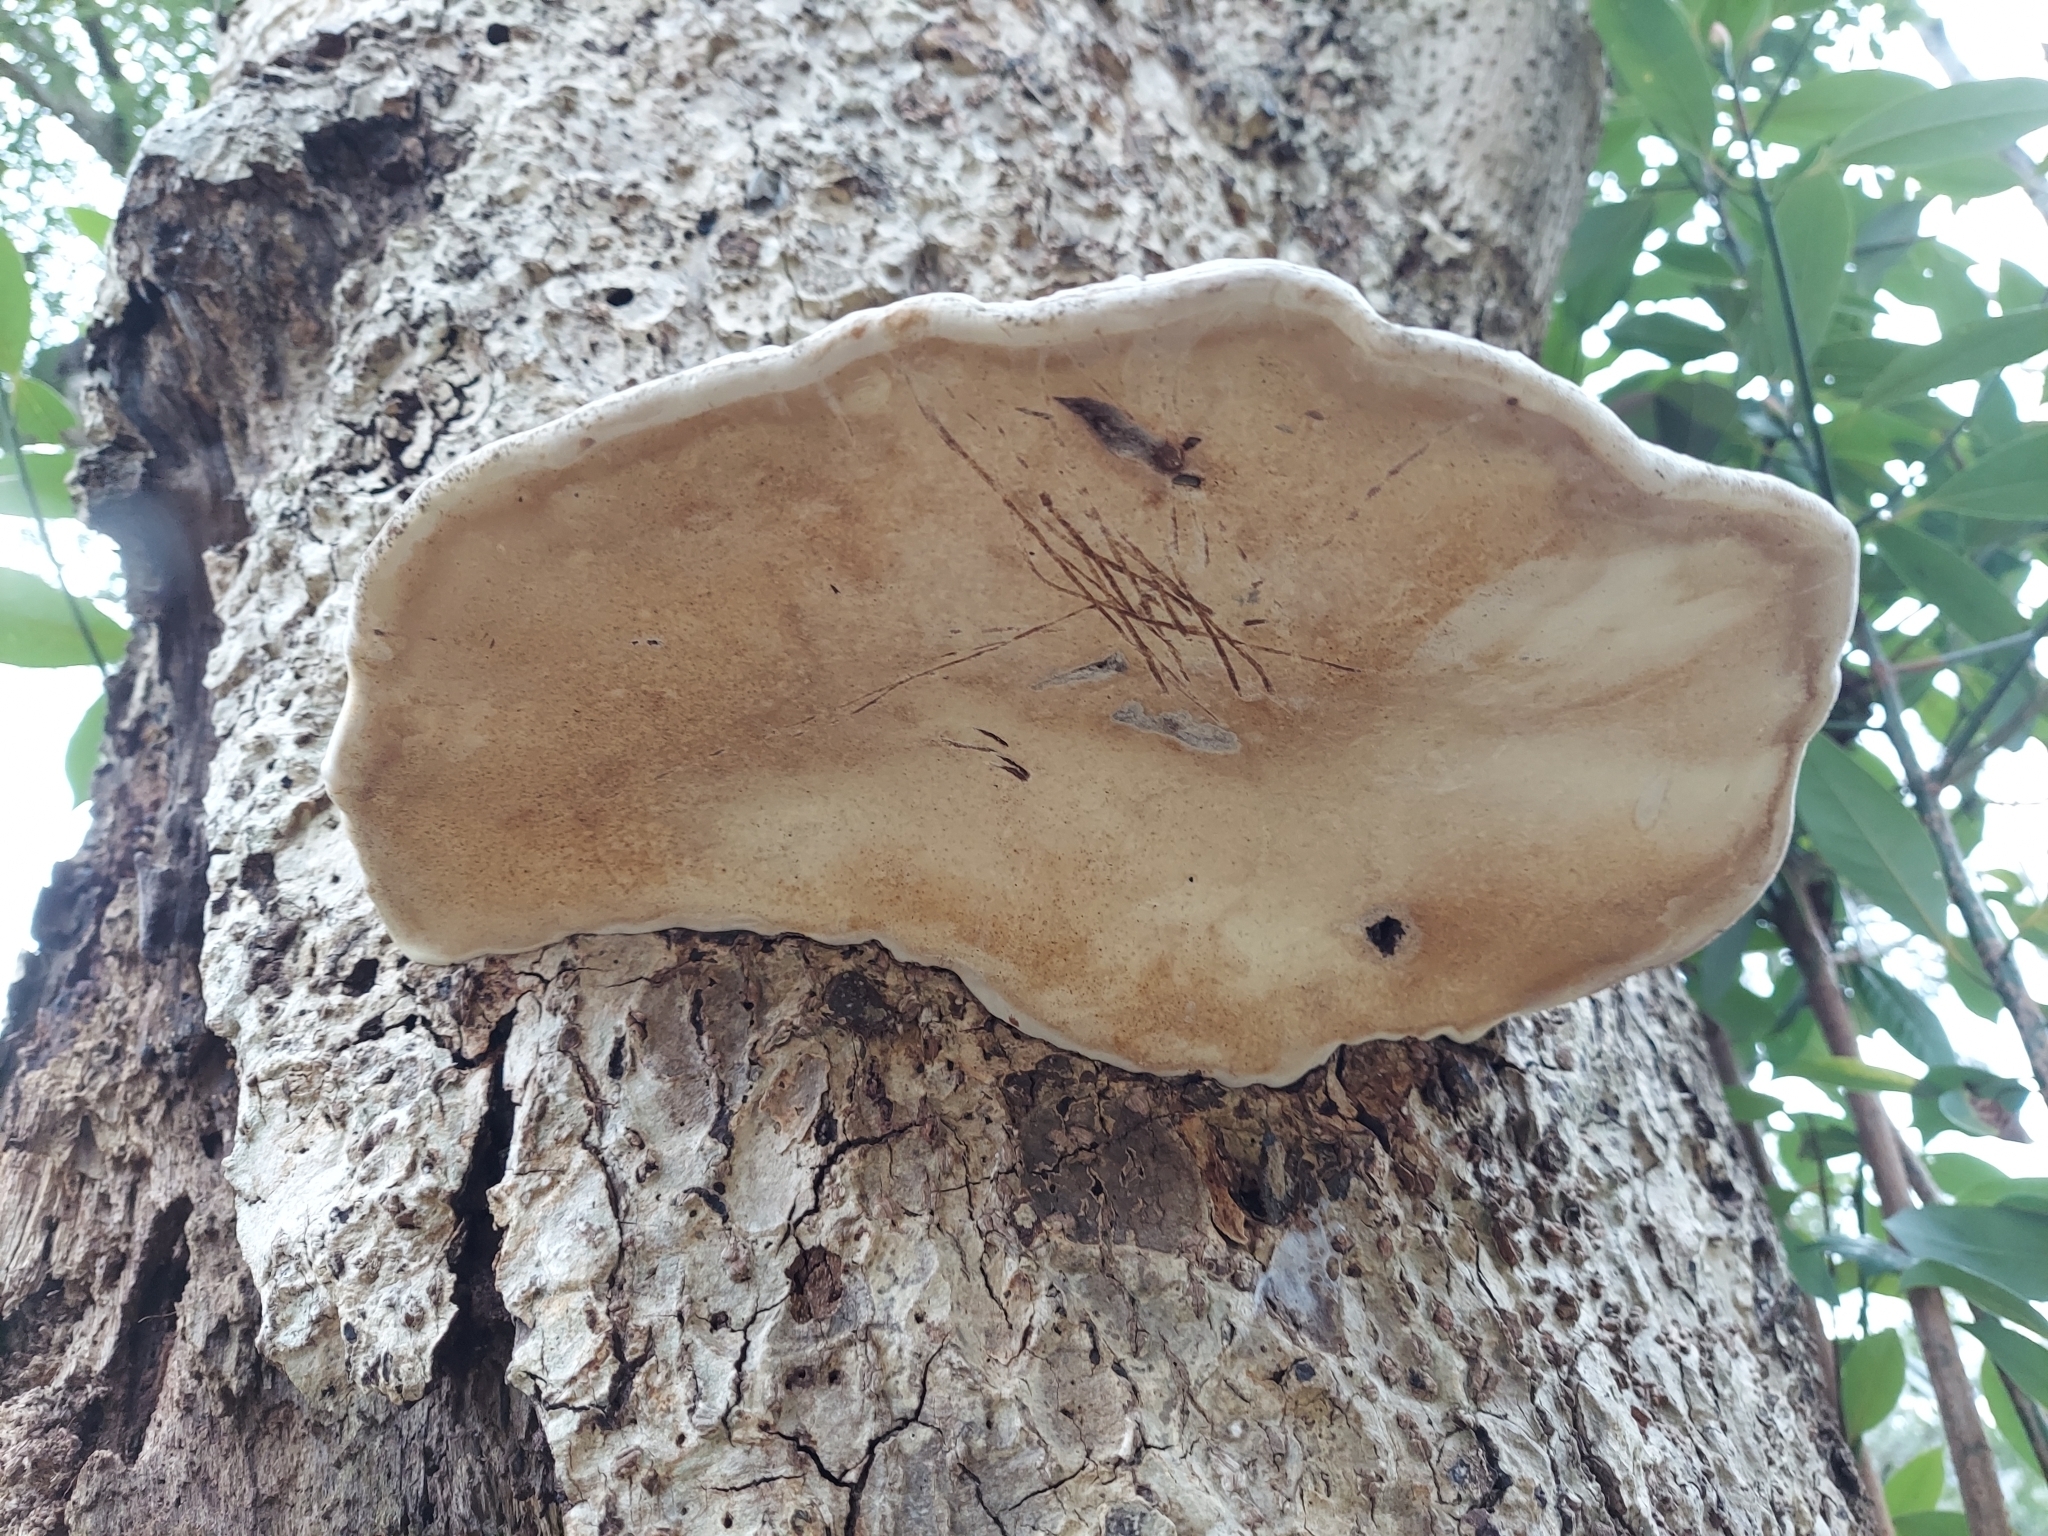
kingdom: Fungi
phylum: Basidiomycota
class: Agaricomycetes
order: Polyporales
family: Polyporaceae
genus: Ganoderma
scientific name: Ganoderma applanatum
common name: Artist's bracket
